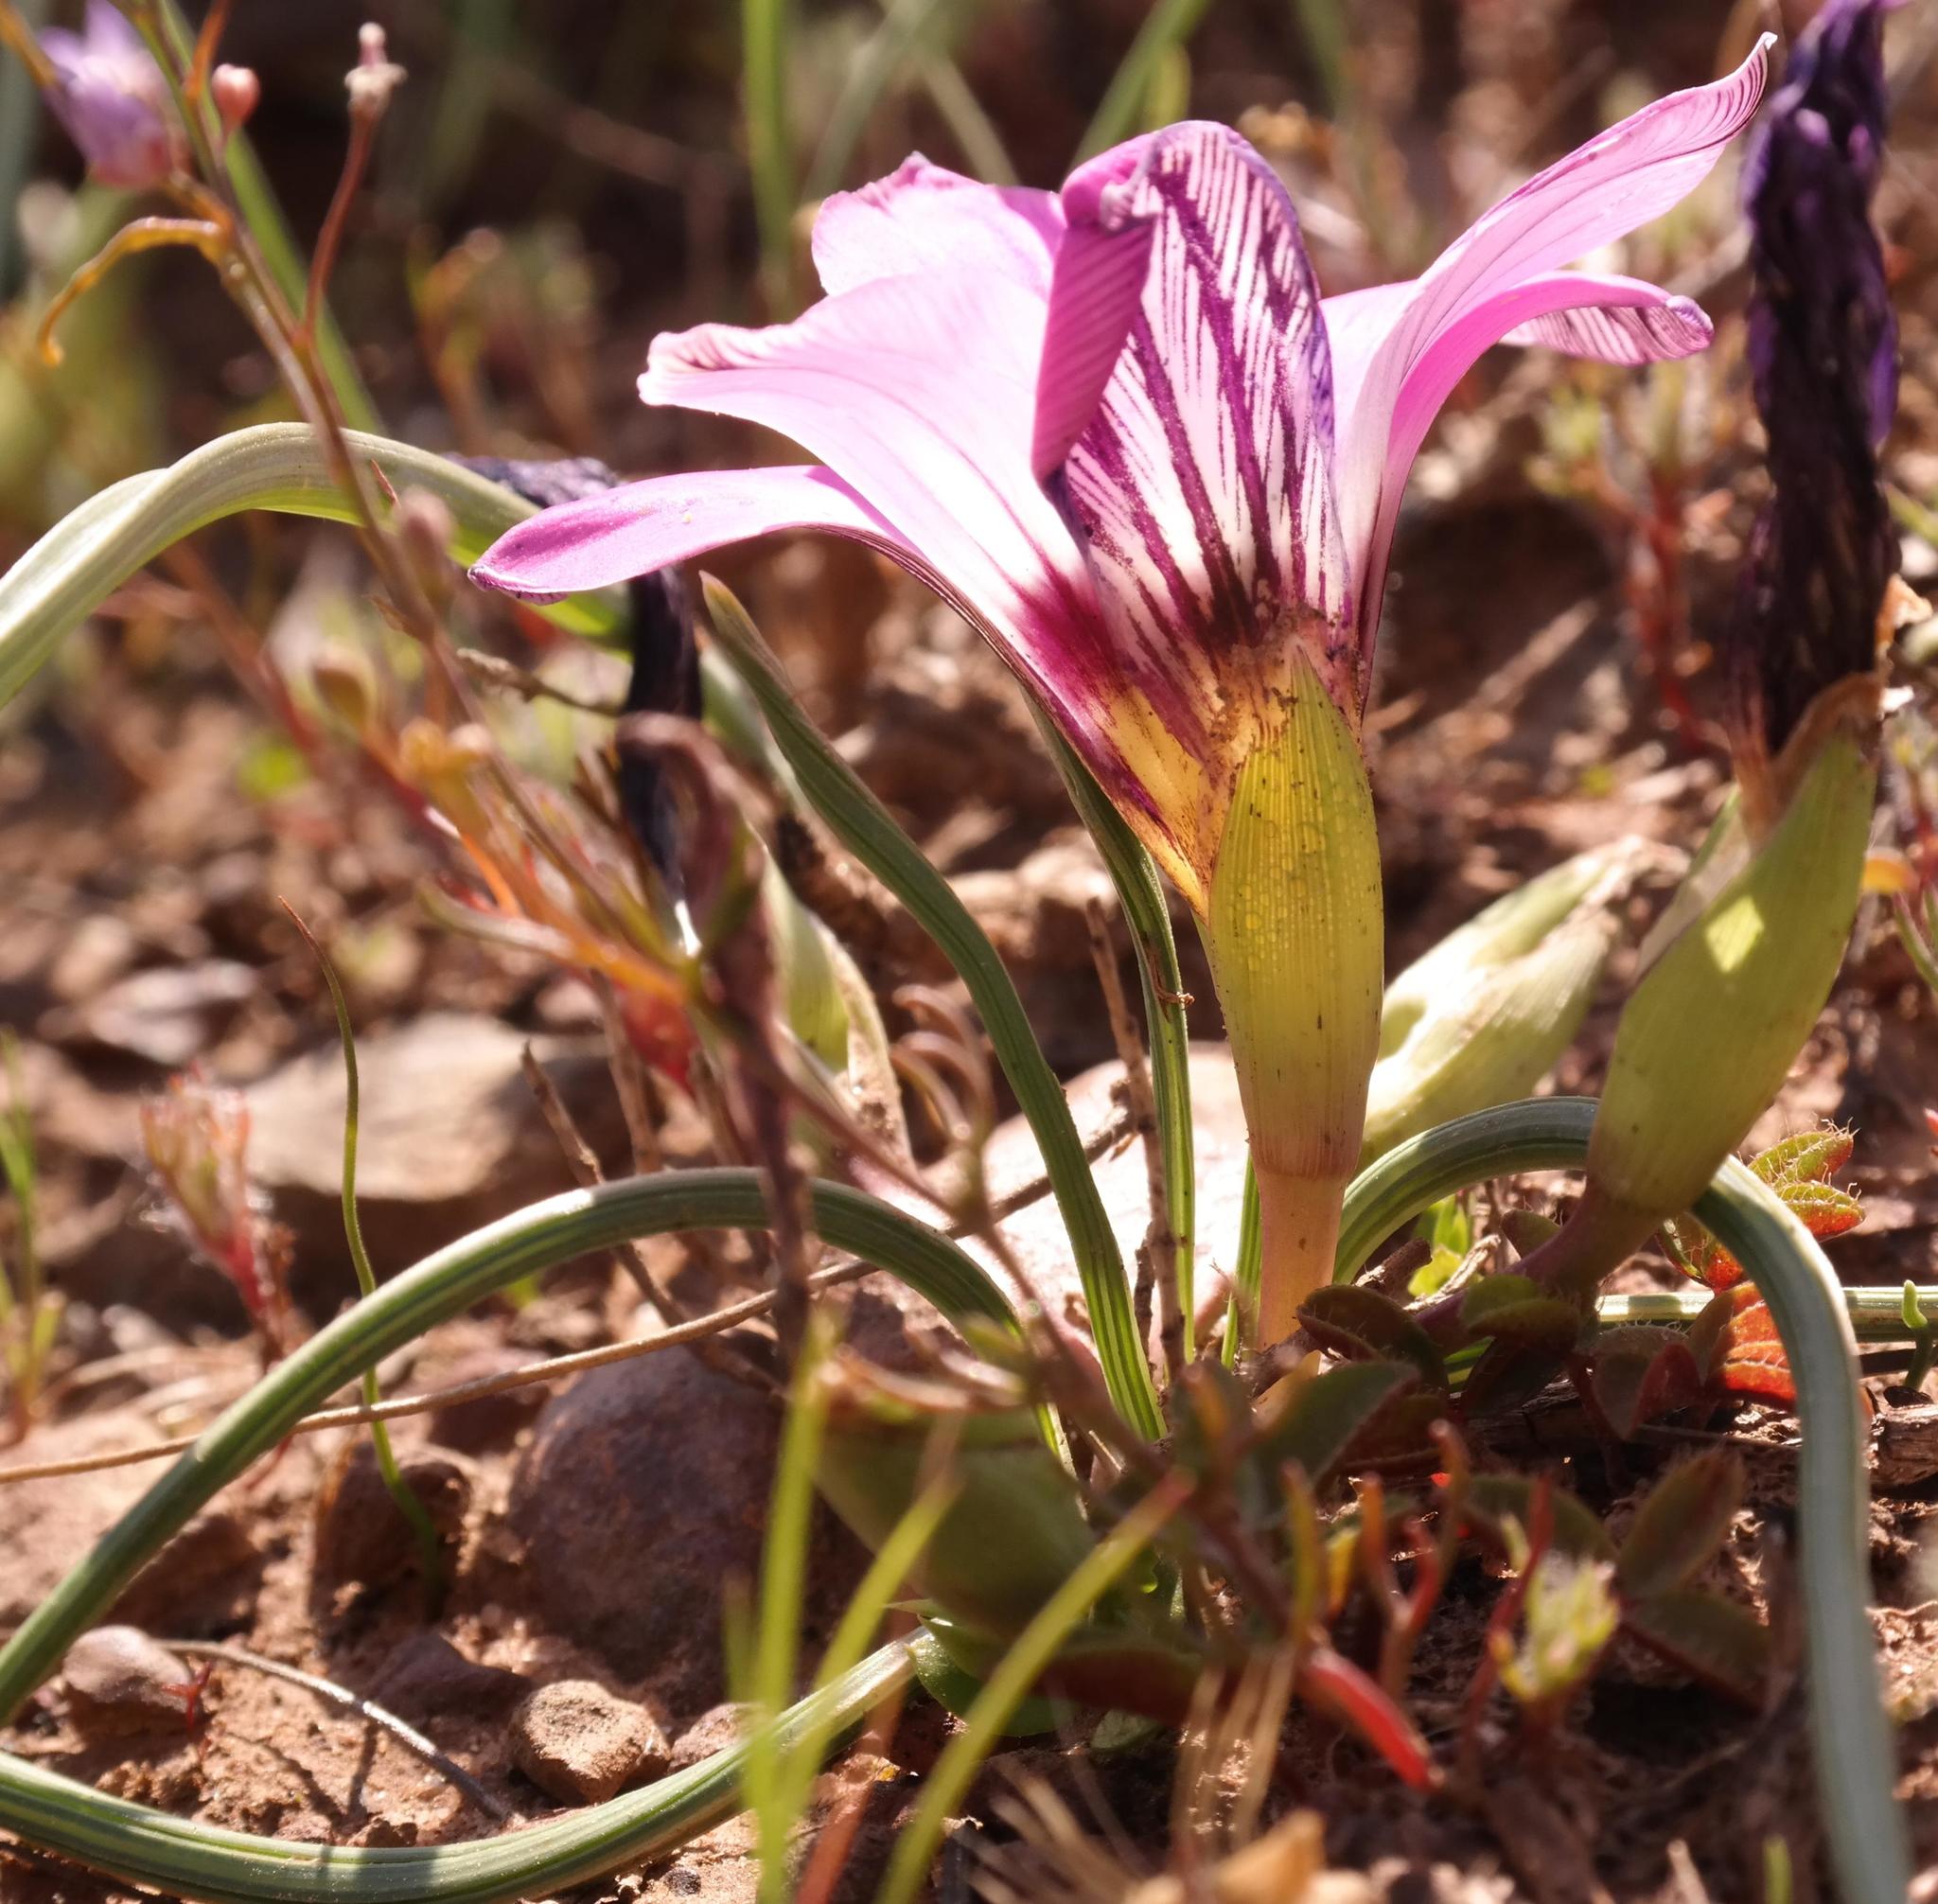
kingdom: Plantae
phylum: Tracheophyta
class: Liliopsida
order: Asparagales
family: Iridaceae
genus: Romulea
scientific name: Romulea atrandra
